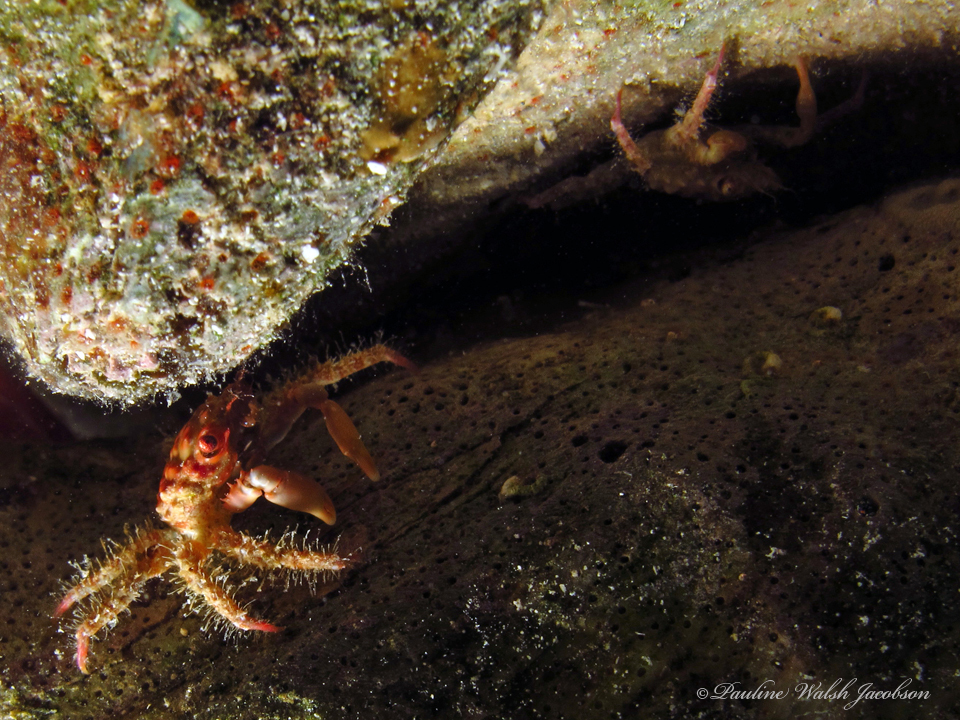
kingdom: Animalia
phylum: Arthropoda
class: Malacostraca
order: Decapoda
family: Mithracidae
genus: Mithraculus
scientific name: Mithraculus forceps
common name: Red-ridged clinging crab
